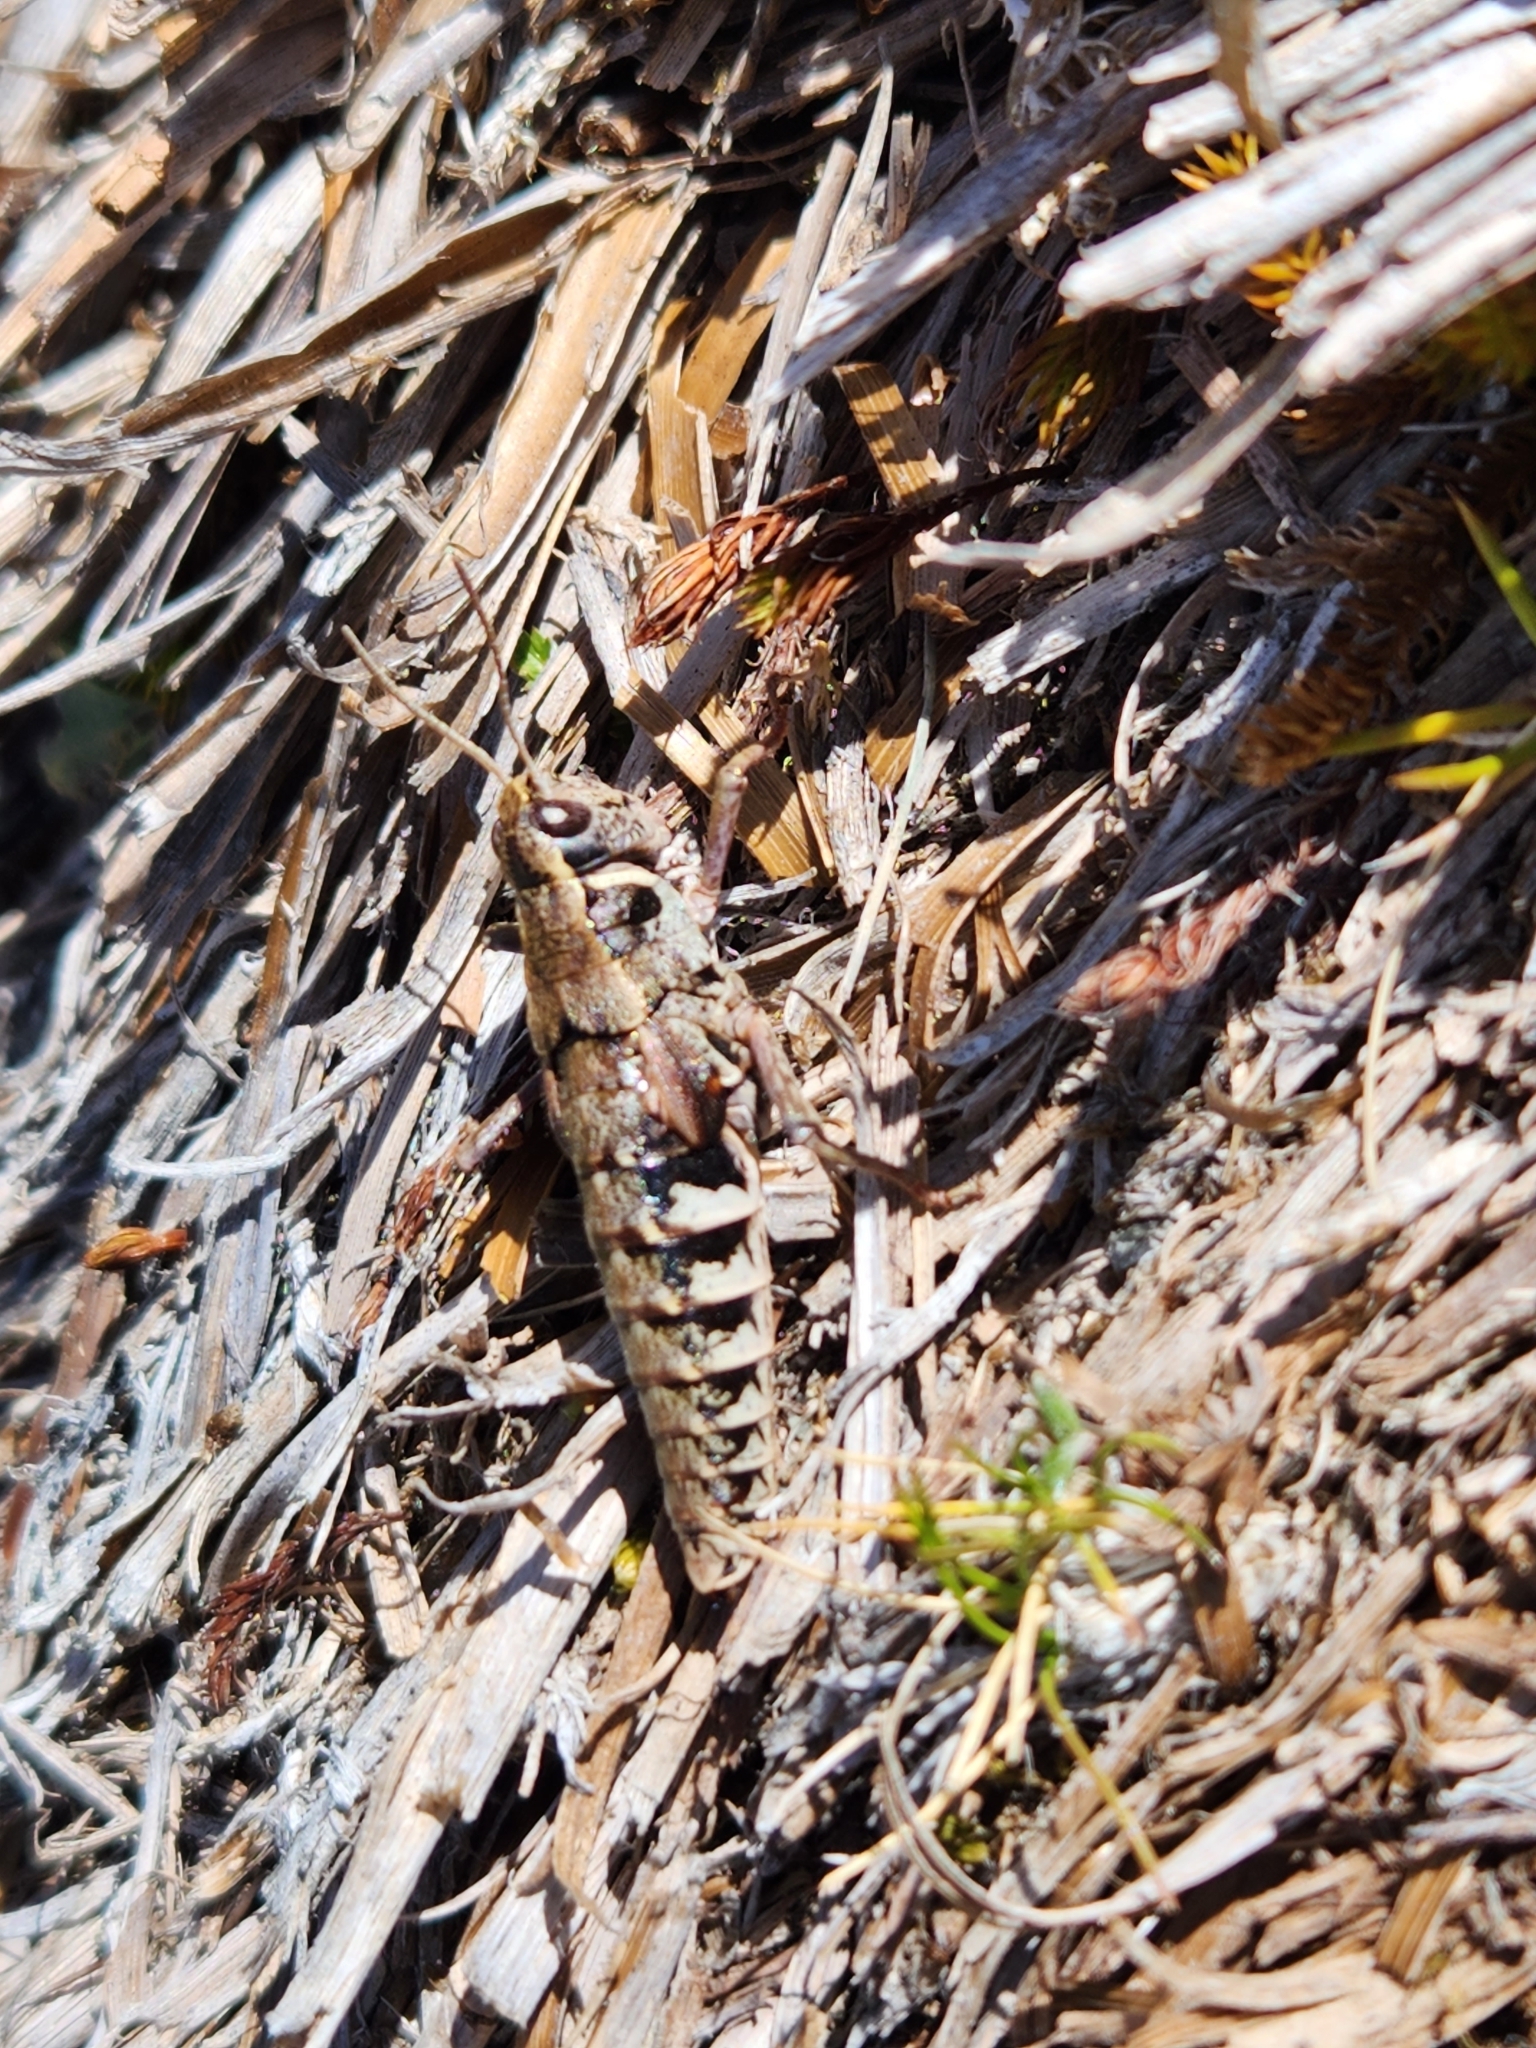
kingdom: Animalia
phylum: Arthropoda
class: Insecta
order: Orthoptera
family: Acrididae
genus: Sigaus
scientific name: Sigaus australis
